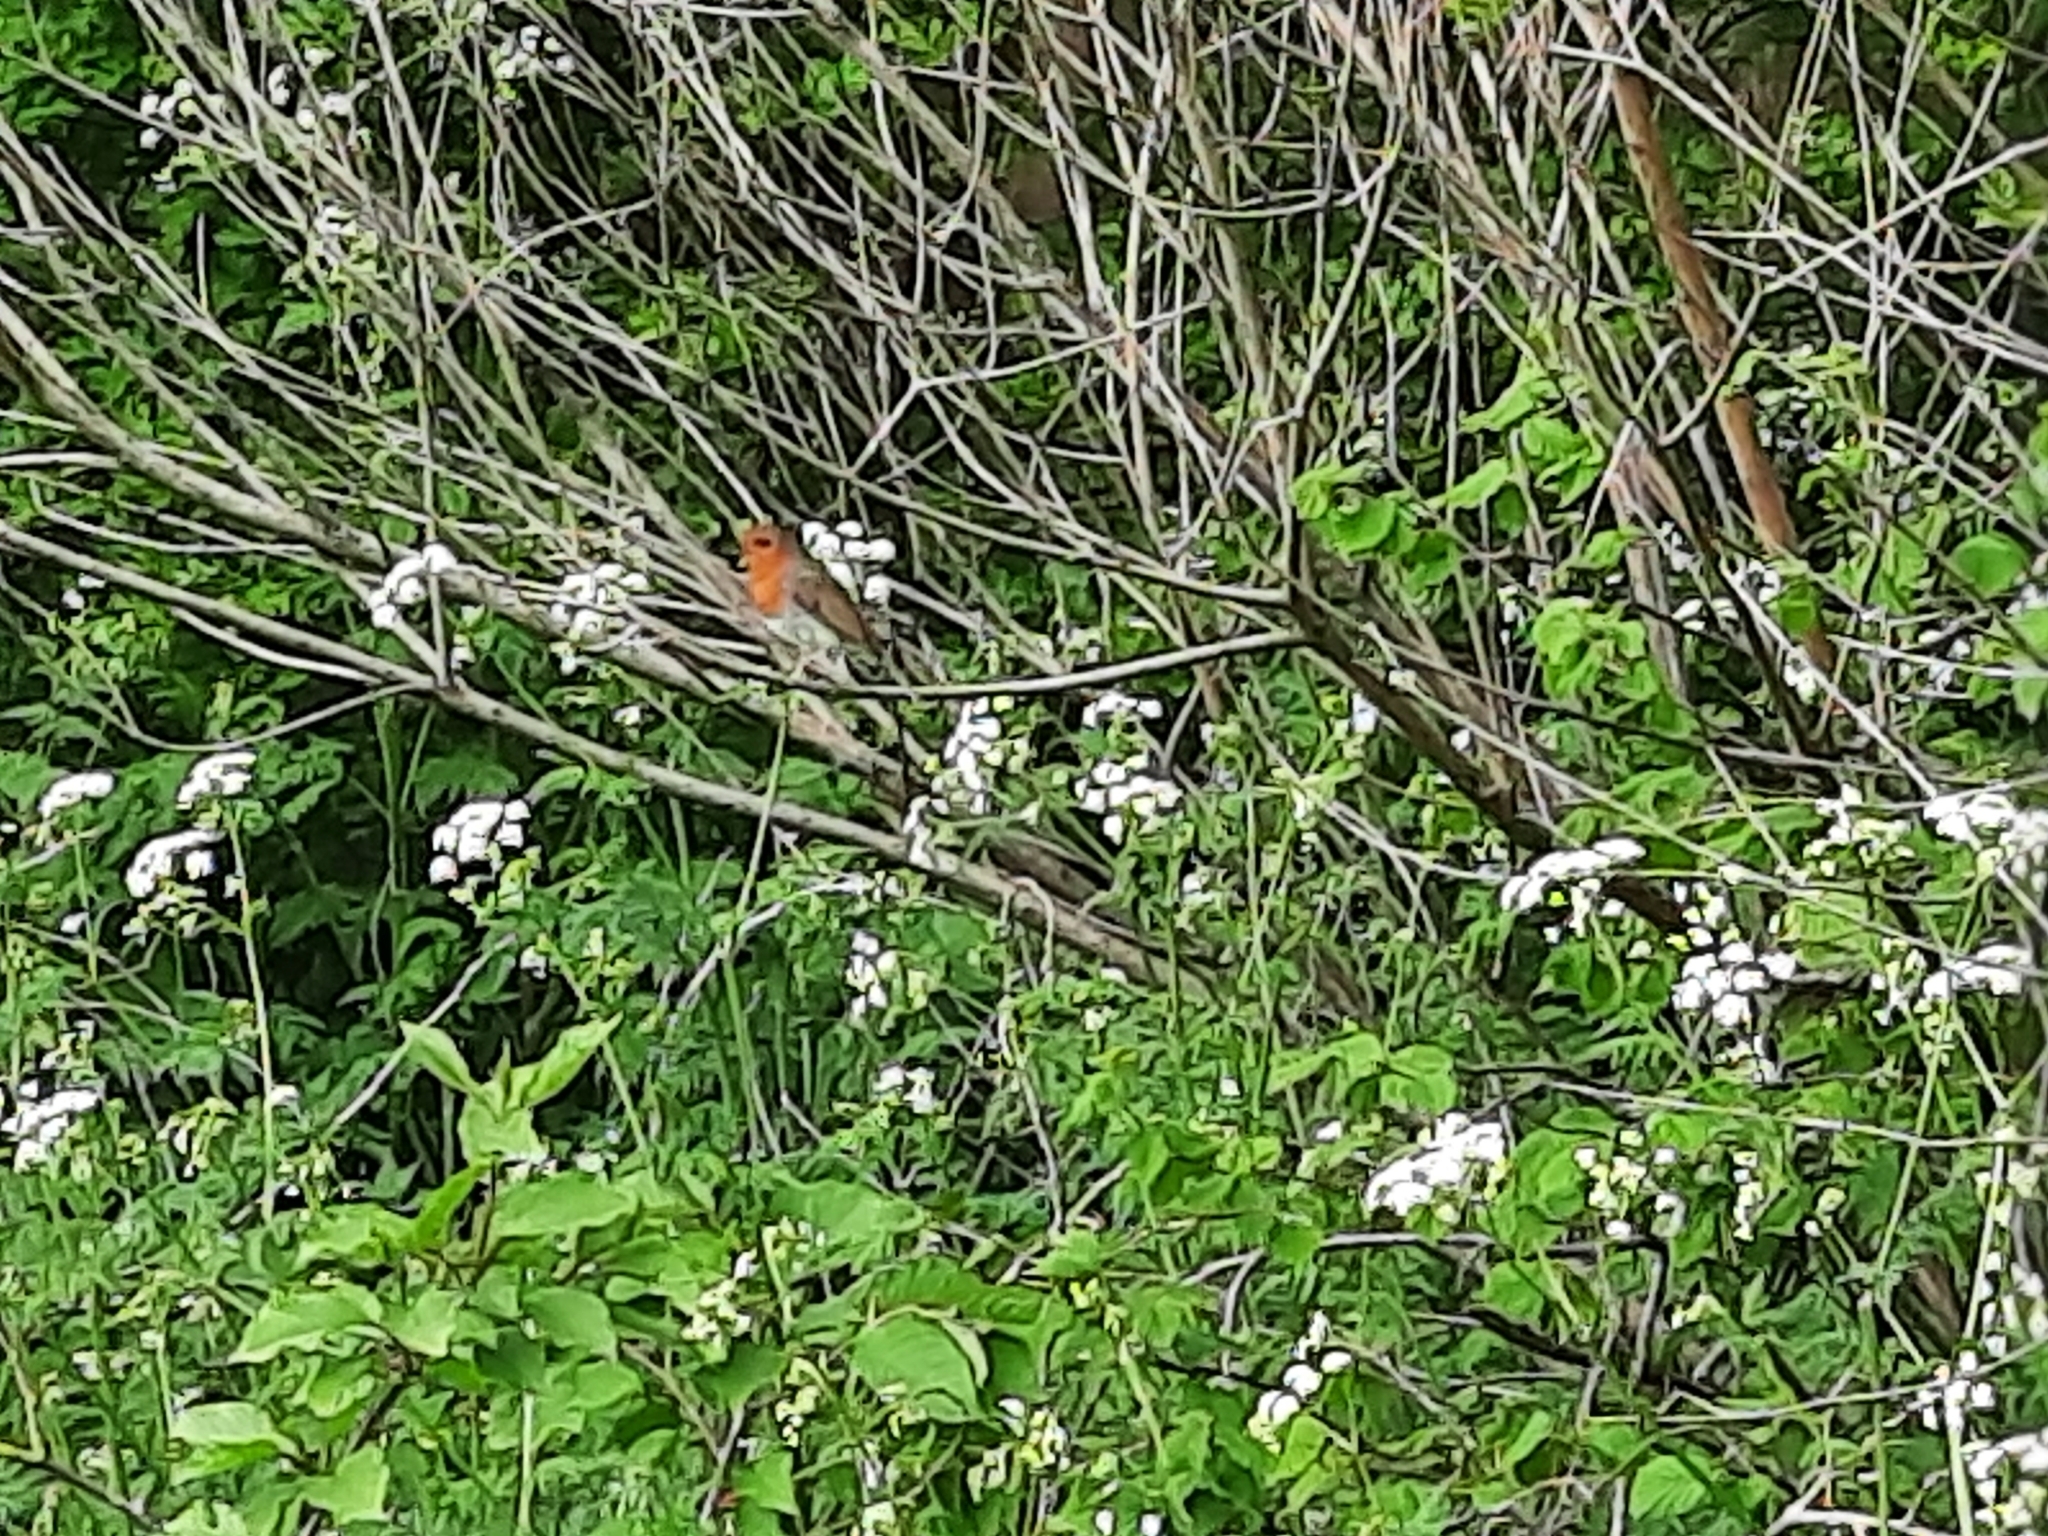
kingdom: Animalia
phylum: Chordata
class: Aves
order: Passeriformes
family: Muscicapidae
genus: Erithacus
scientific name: Erithacus rubecula
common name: European robin
